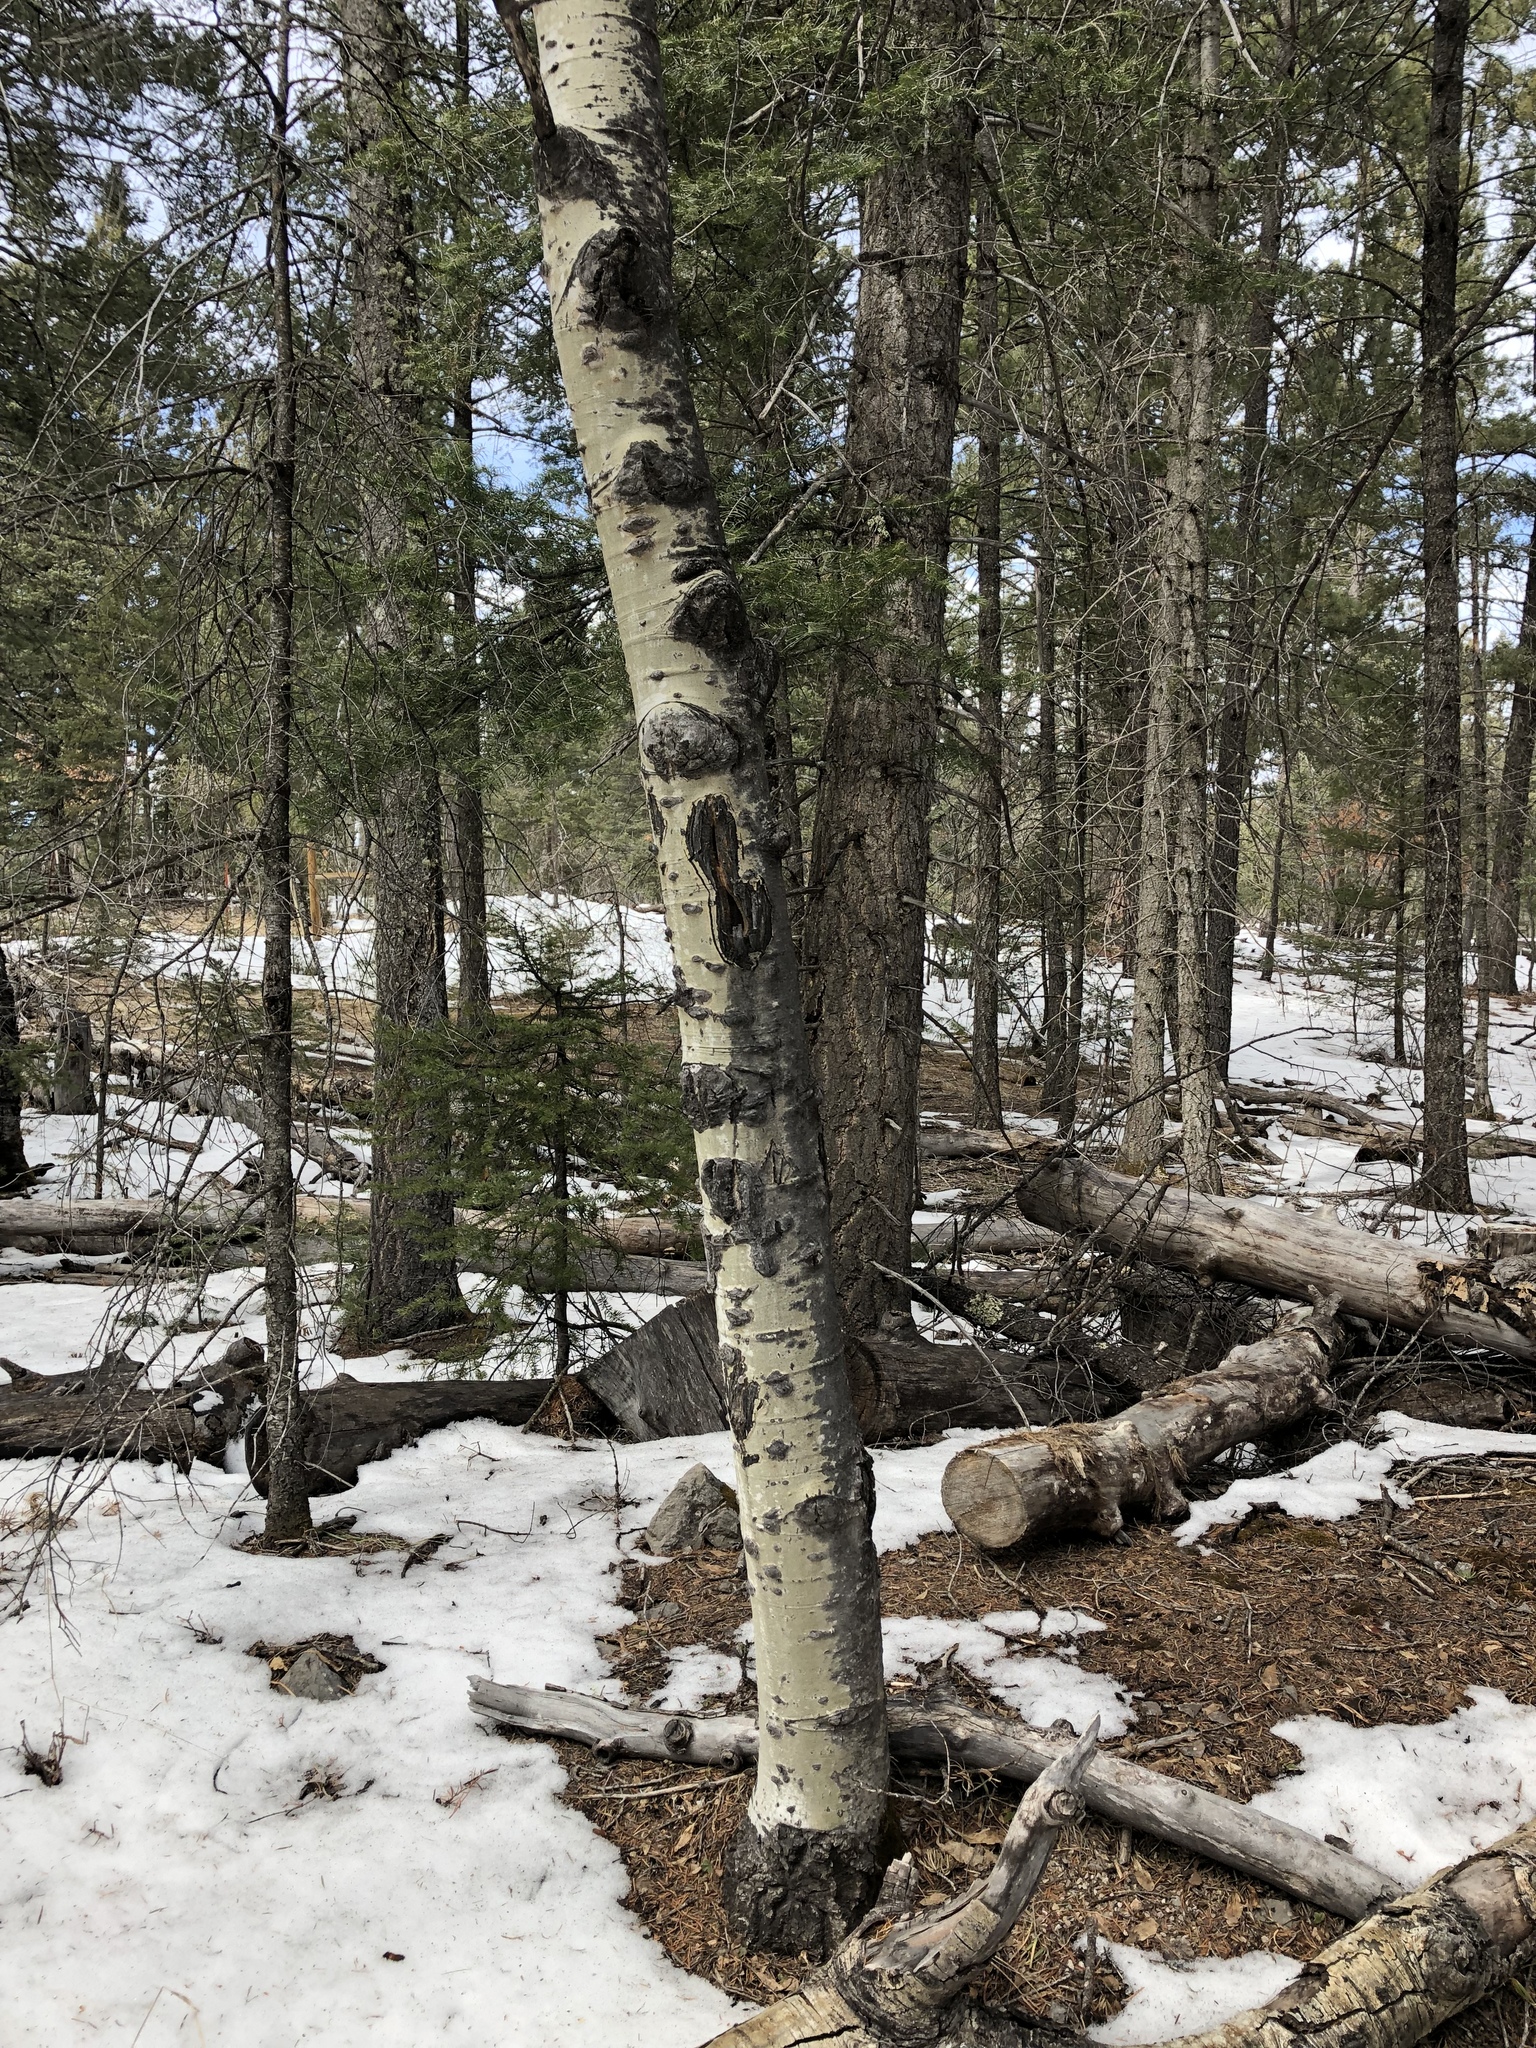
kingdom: Plantae
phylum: Tracheophyta
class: Magnoliopsida
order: Malpighiales
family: Salicaceae
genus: Populus
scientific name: Populus tremuloides
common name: Quaking aspen
